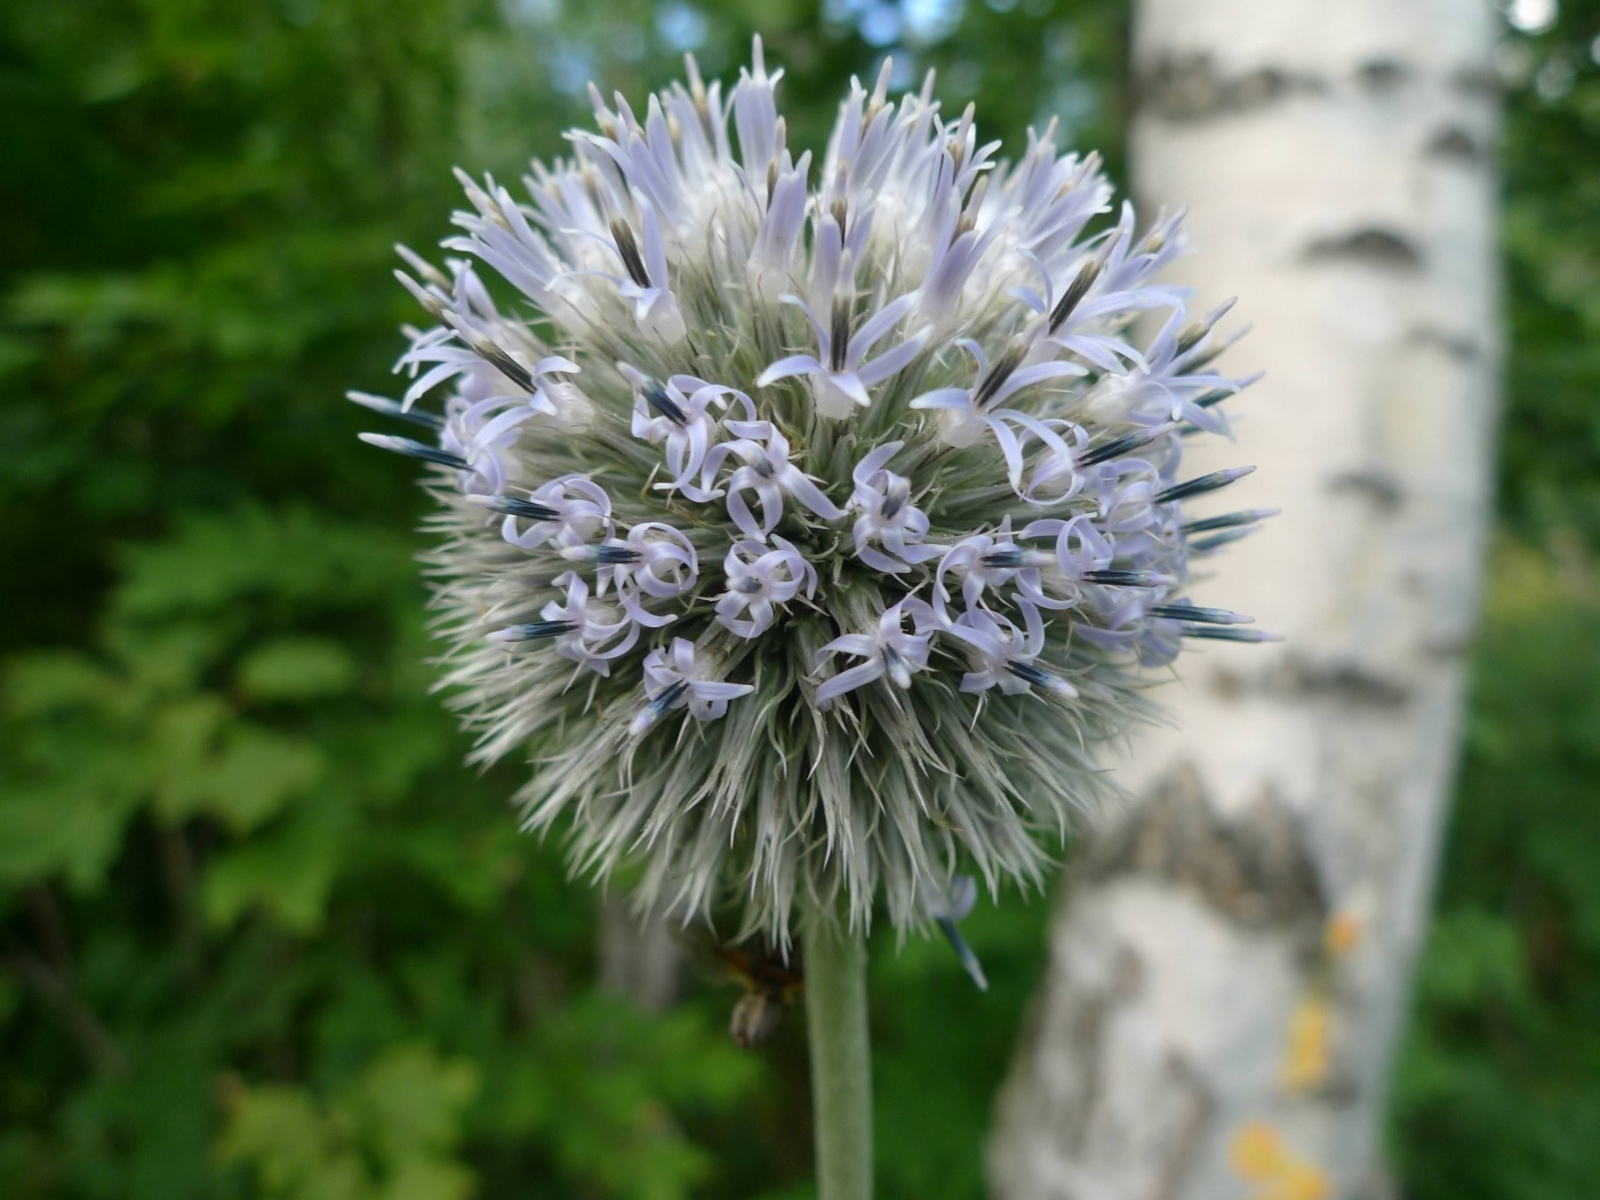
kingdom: Plantae
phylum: Tracheophyta
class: Magnoliopsida
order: Asterales
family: Asteraceae
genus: Echinops
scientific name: Echinops exaltatus
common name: Globe-thistle
